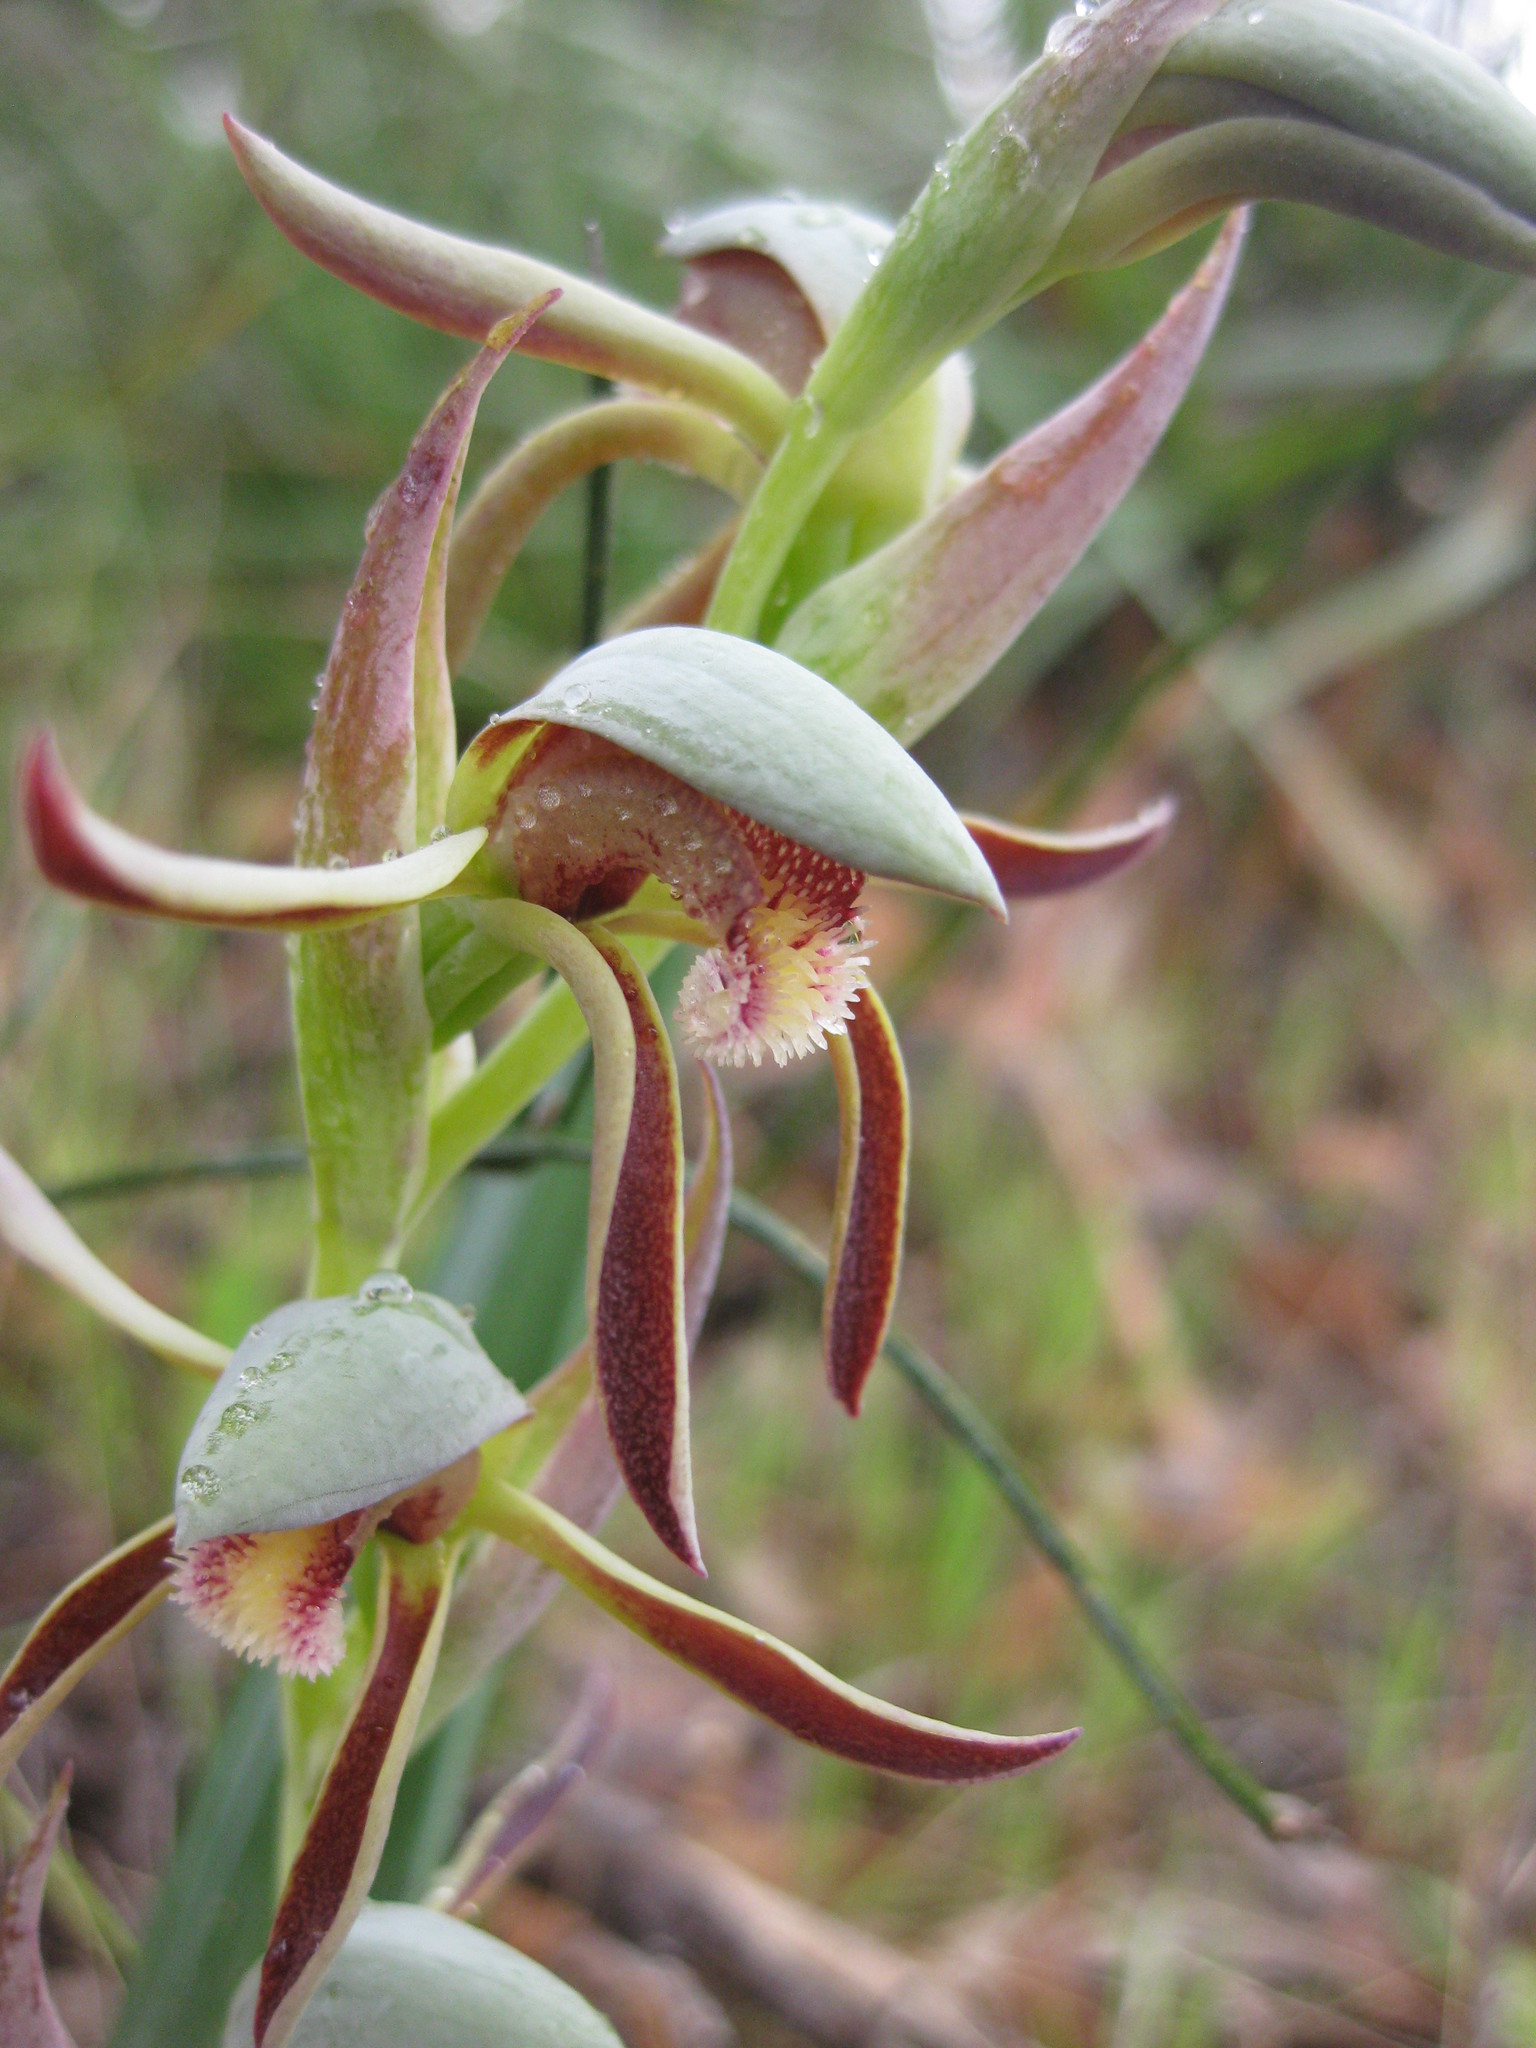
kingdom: Plantae
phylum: Tracheophyta
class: Liliopsida
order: Asparagales
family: Orchidaceae
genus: Lyperanthus
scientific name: Lyperanthus serratus
